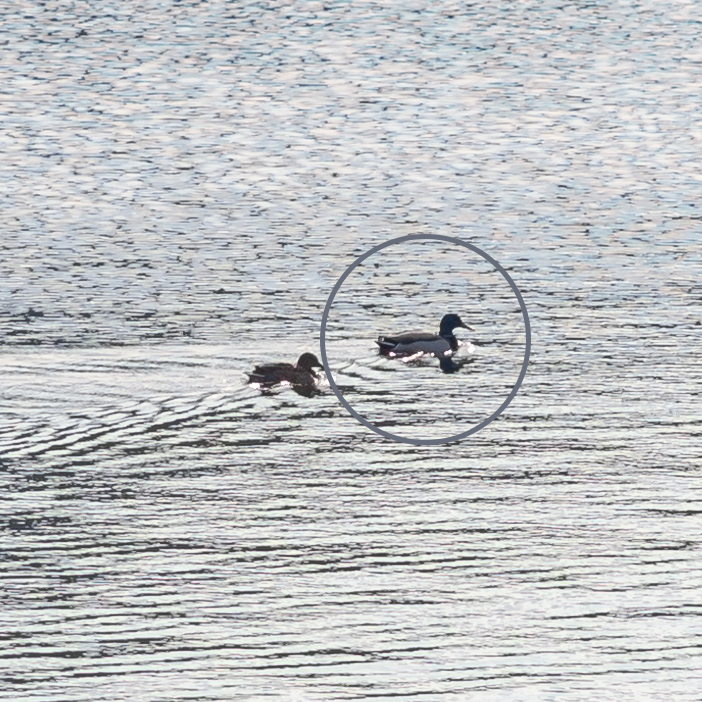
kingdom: Animalia
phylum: Chordata
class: Aves
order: Anseriformes
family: Anatidae
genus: Anas
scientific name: Anas platyrhynchos
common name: Mallard
